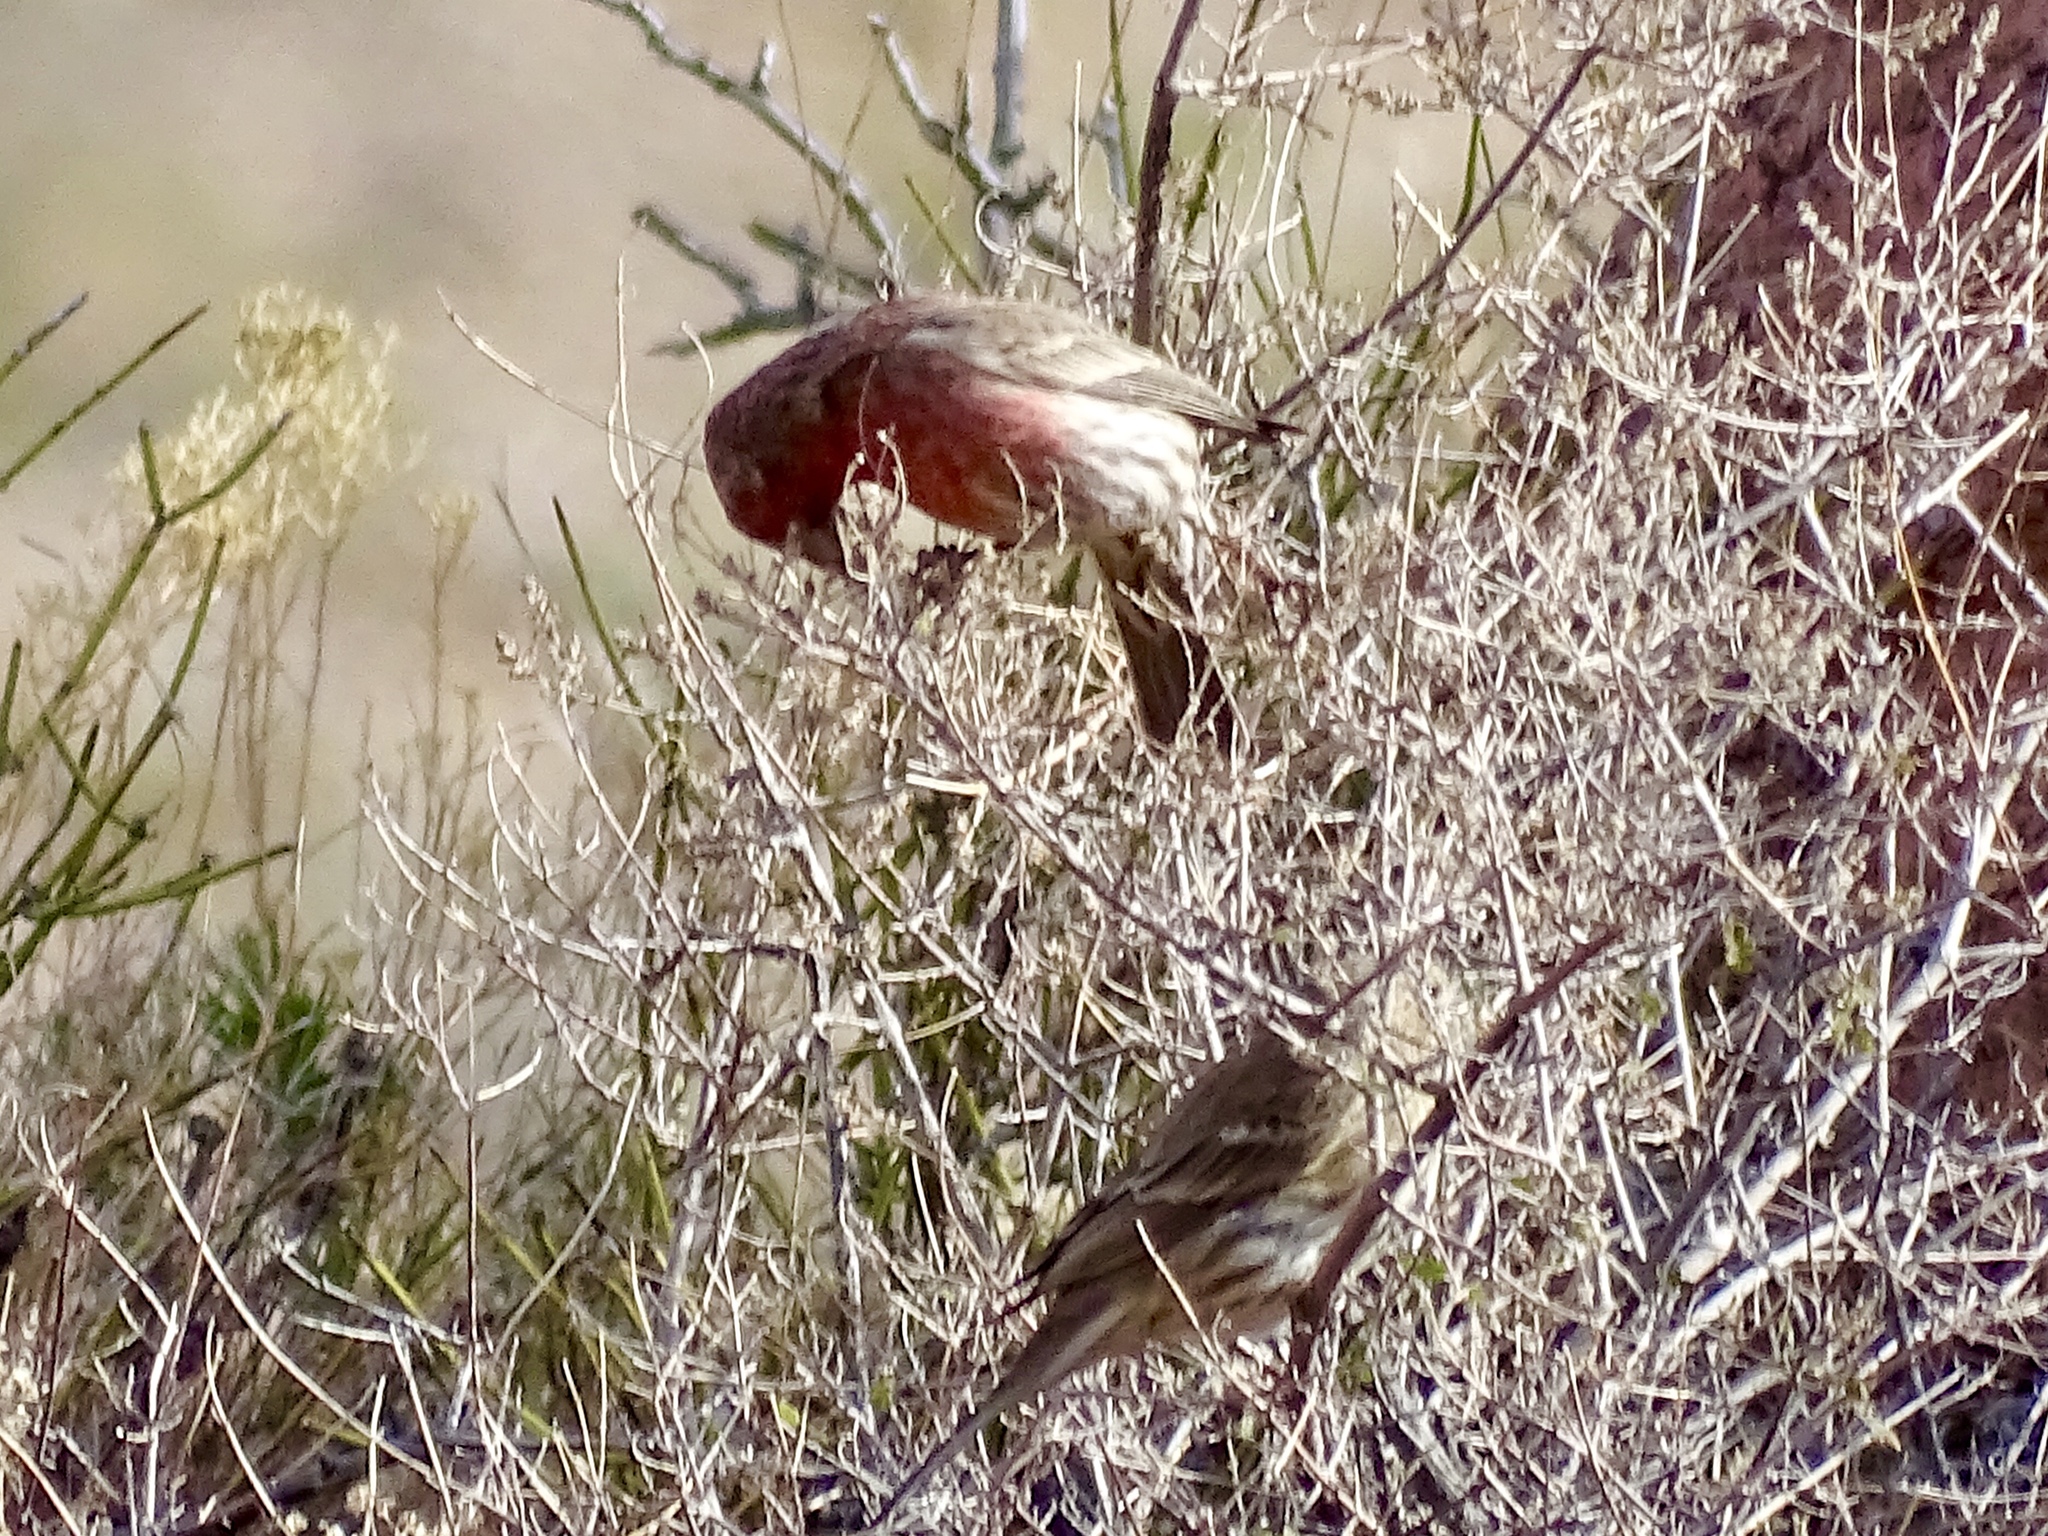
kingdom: Animalia
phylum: Chordata
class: Aves
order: Passeriformes
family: Fringillidae
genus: Haemorhous
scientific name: Haemorhous mexicanus
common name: House finch
